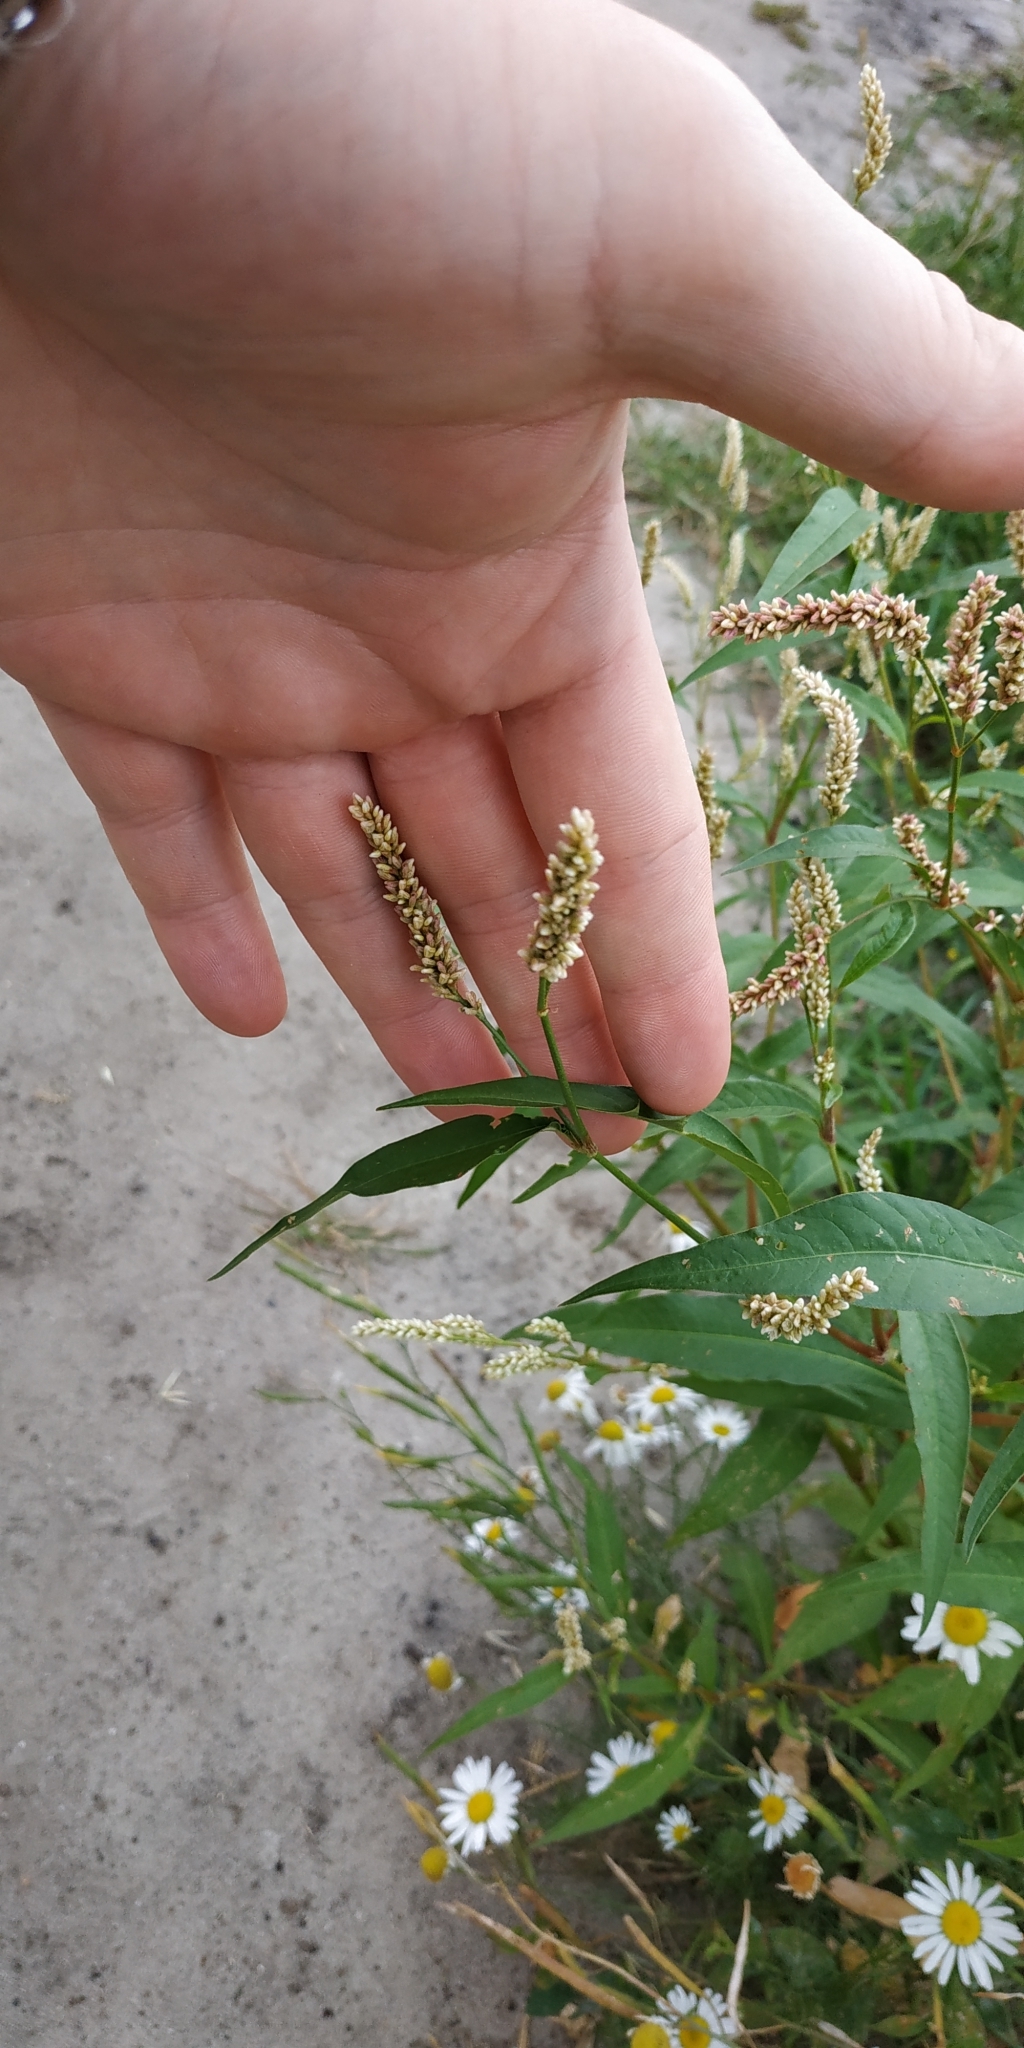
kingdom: Plantae
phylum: Tracheophyta
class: Magnoliopsida
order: Caryophyllales
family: Polygonaceae
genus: Persicaria
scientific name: Persicaria lapathifolia
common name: Curlytop knotweed
